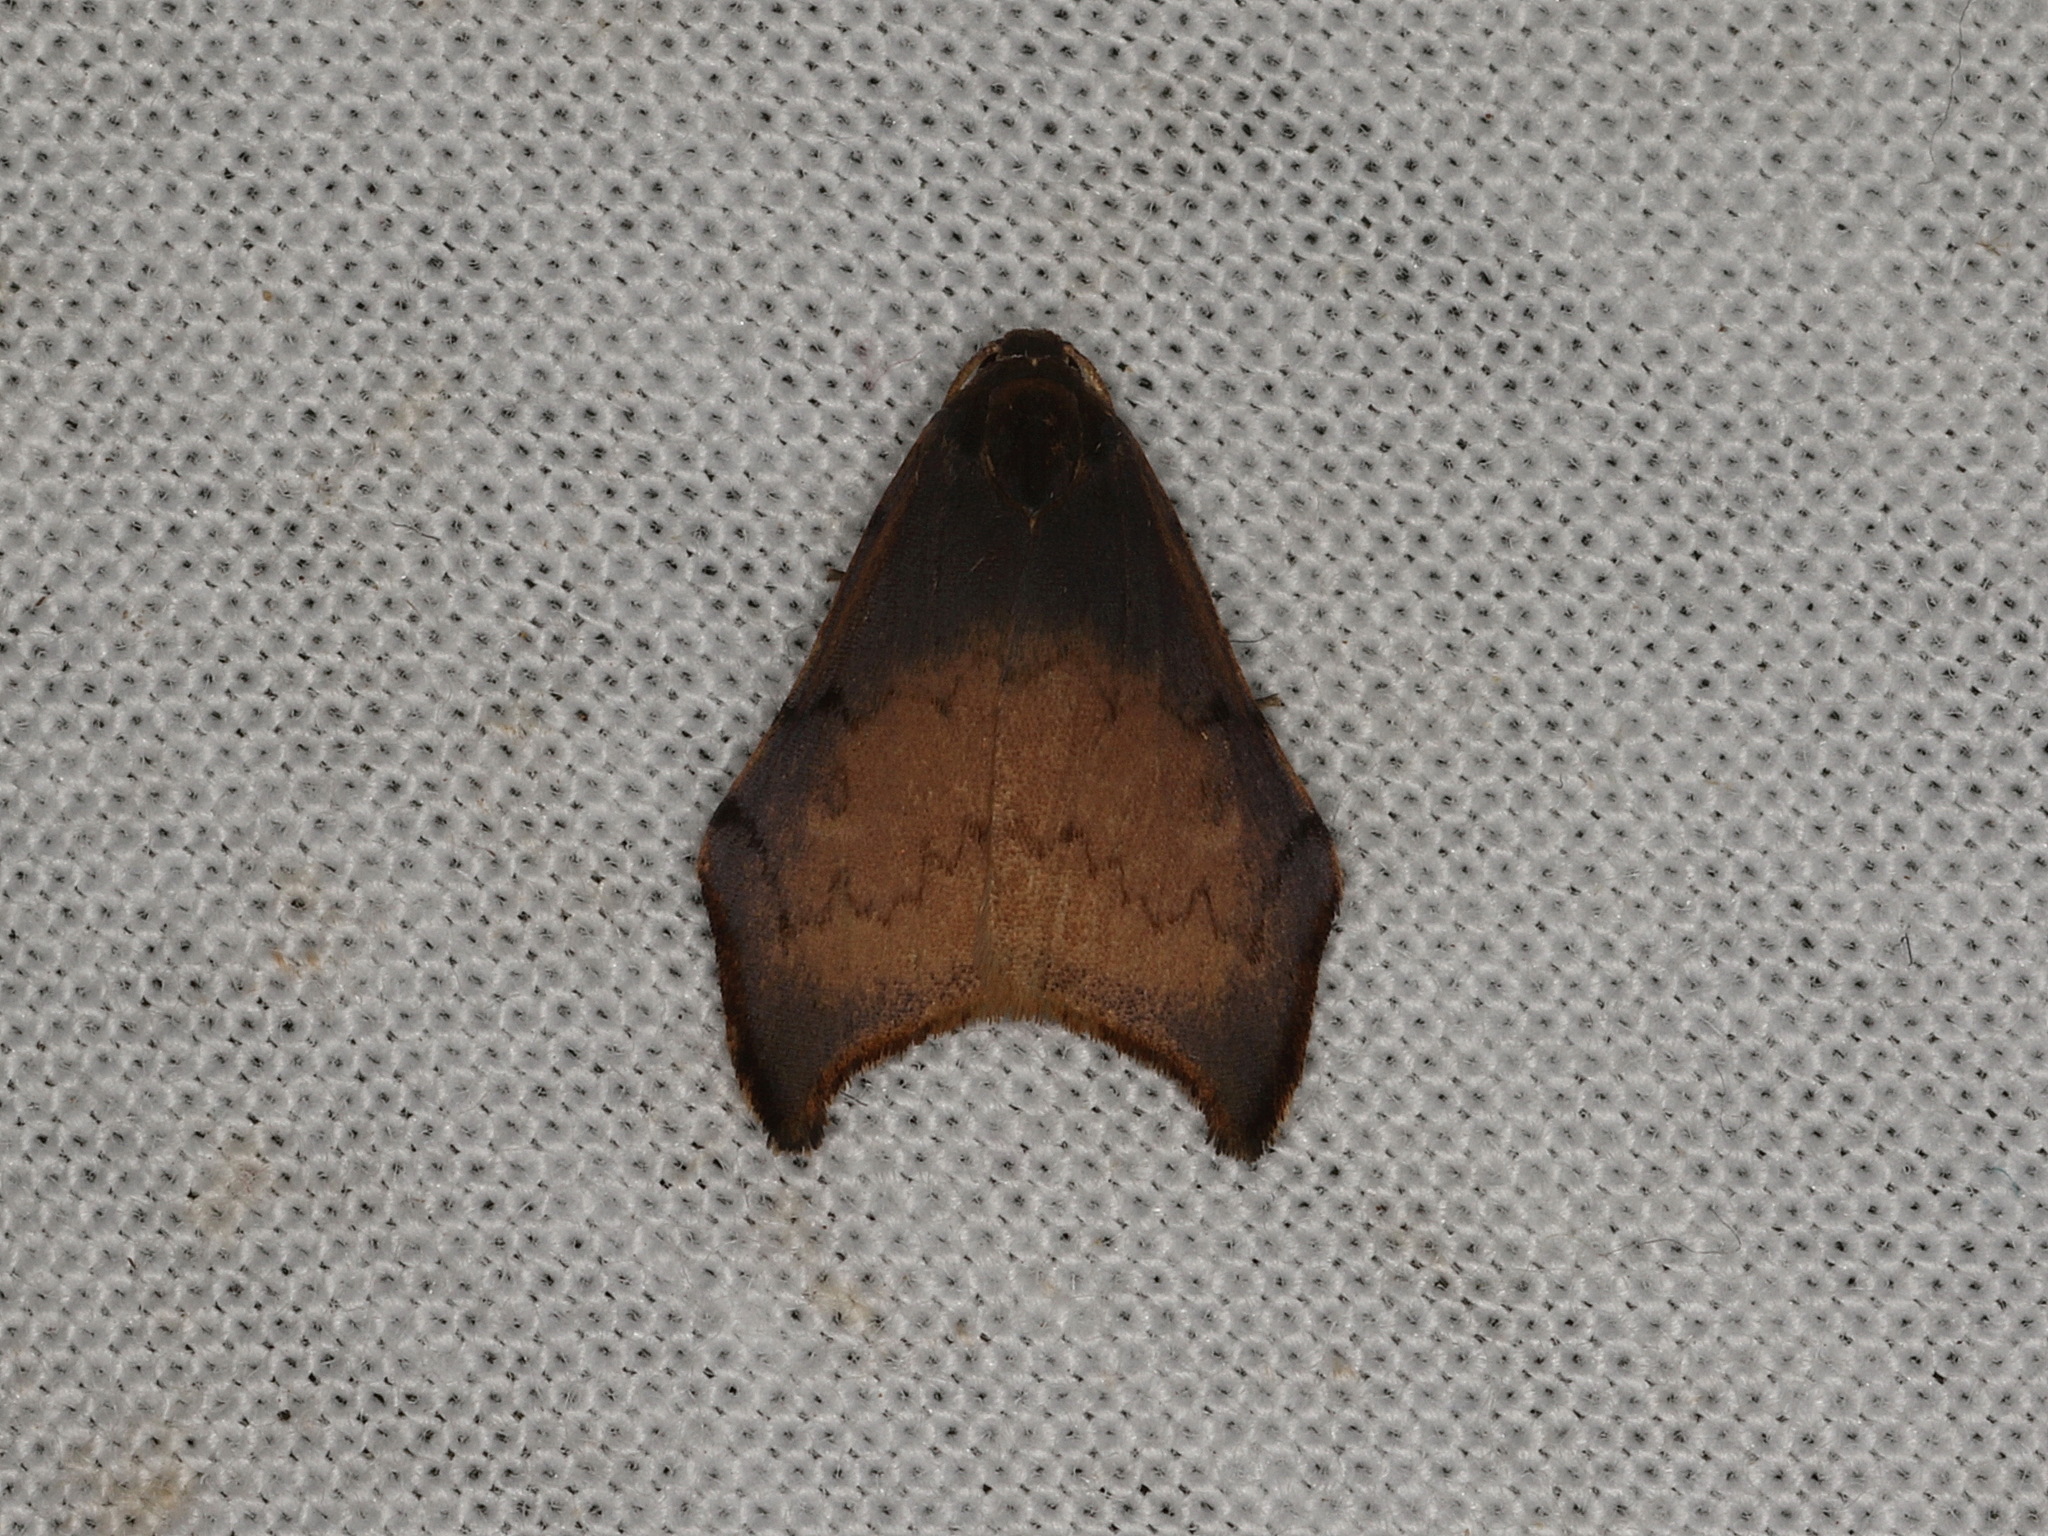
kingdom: Animalia
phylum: Arthropoda
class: Insecta
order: Lepidoptera
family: Erebidae
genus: Macaduma
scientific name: Macaduma strongyla
